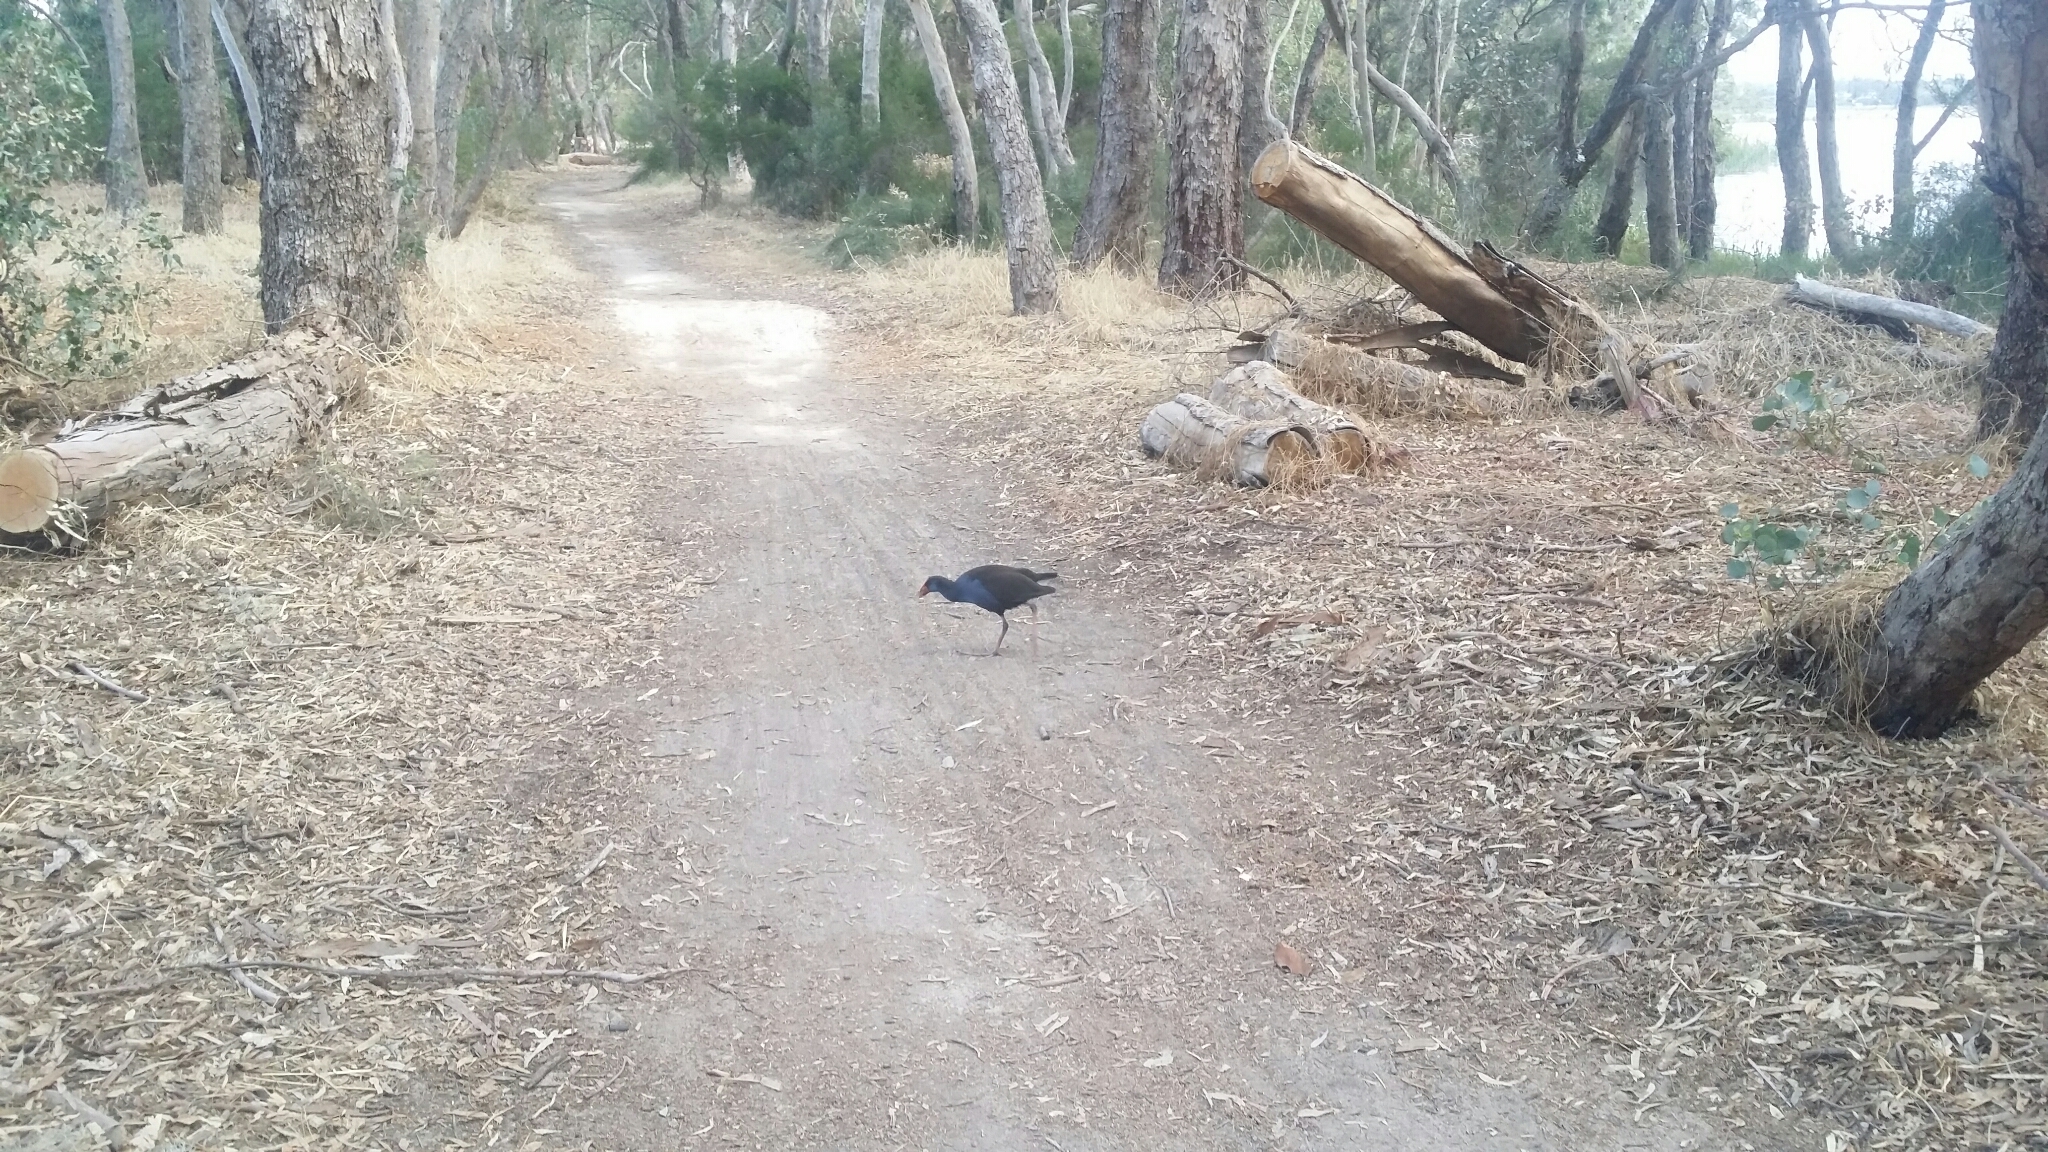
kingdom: Animalia
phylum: Chordata
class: Aves
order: Gruiformes
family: Rallidae
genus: Porphyrio
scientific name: Porphyrio melanotus
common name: Australasian swamphen
